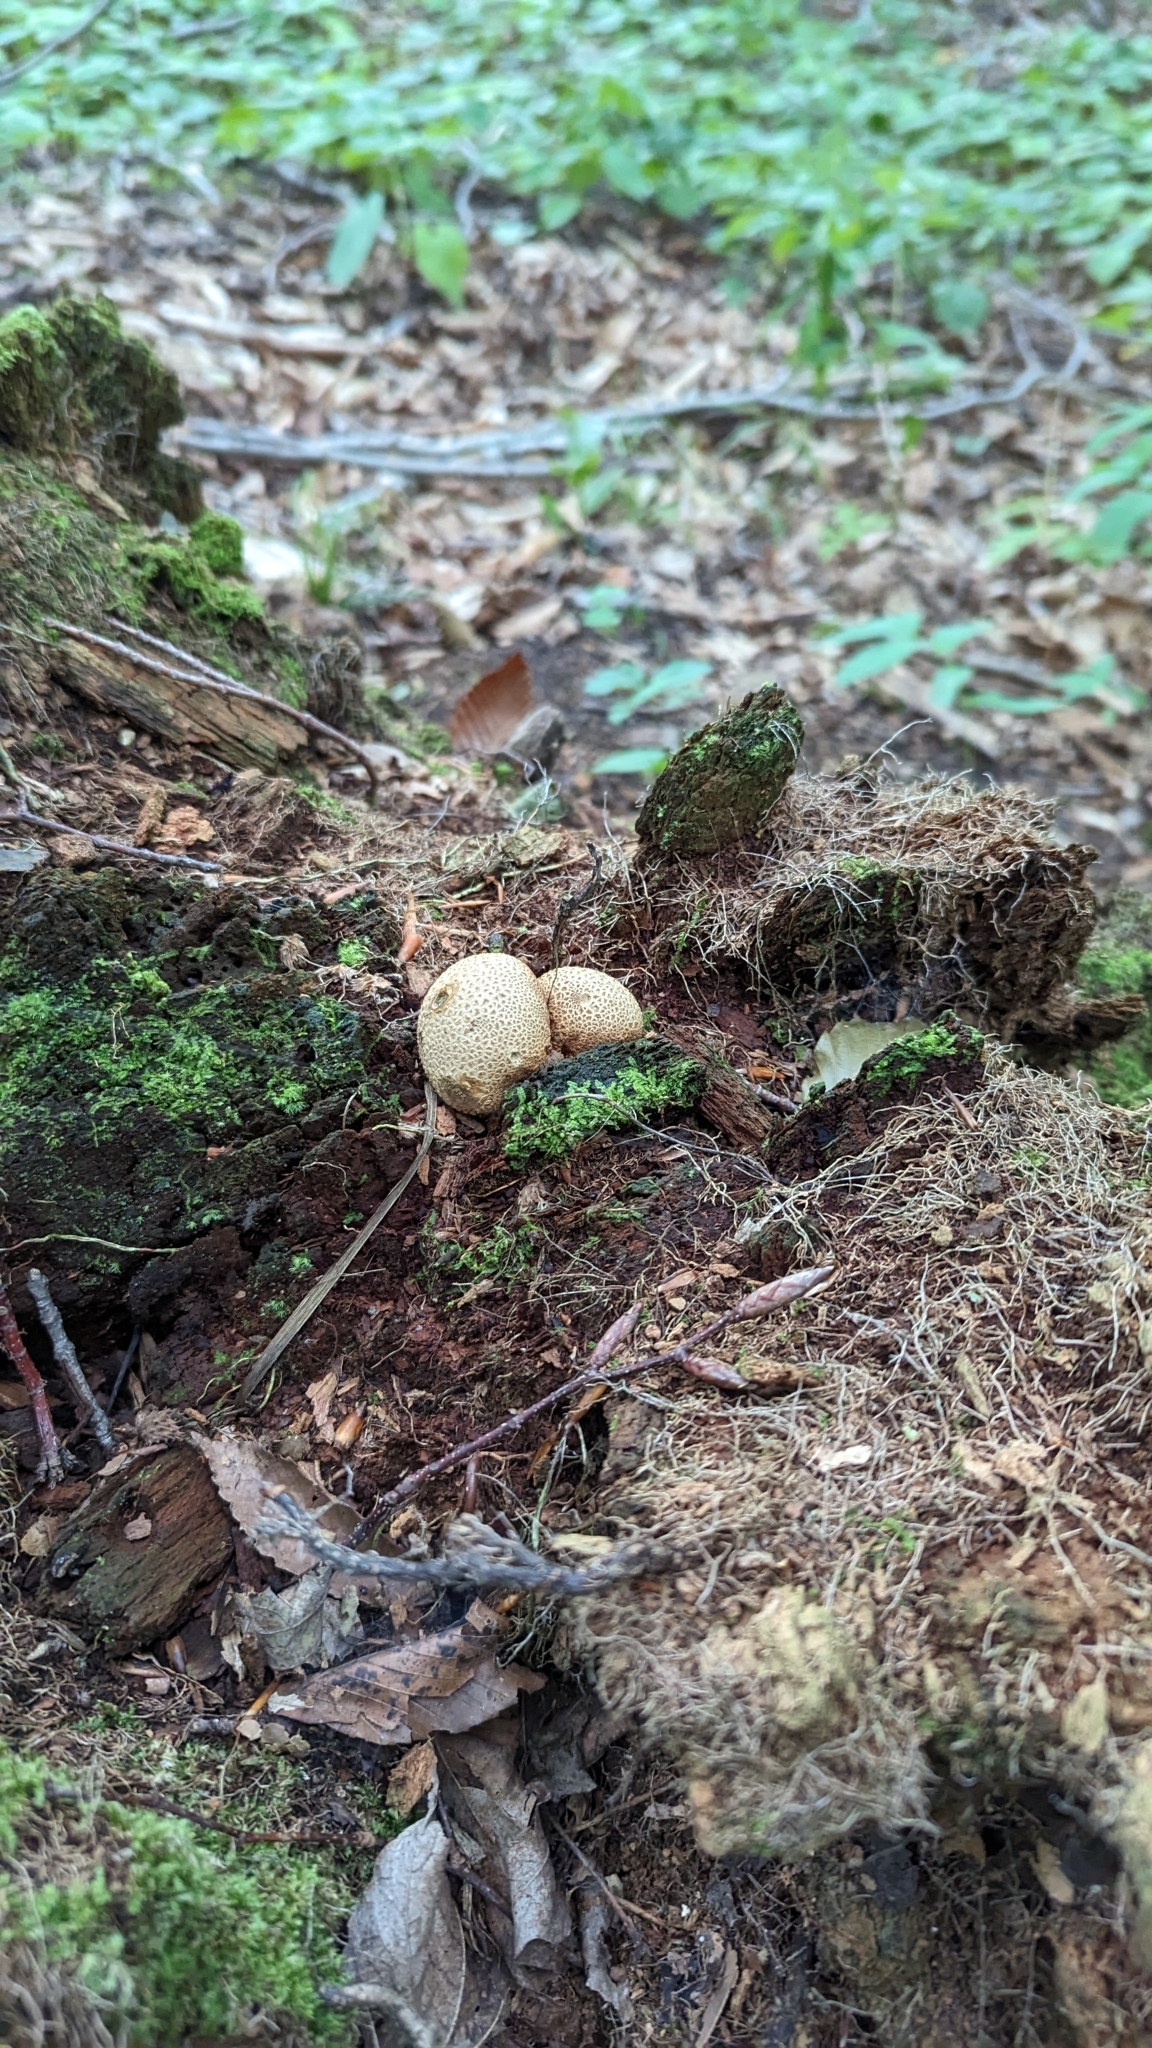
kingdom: Fungi
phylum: Basidiomycota
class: Agaricomycetes
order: Boletales
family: Sclerodermataceae
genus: Scleroderma
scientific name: Scleroderma citrinum
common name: Common earthball
